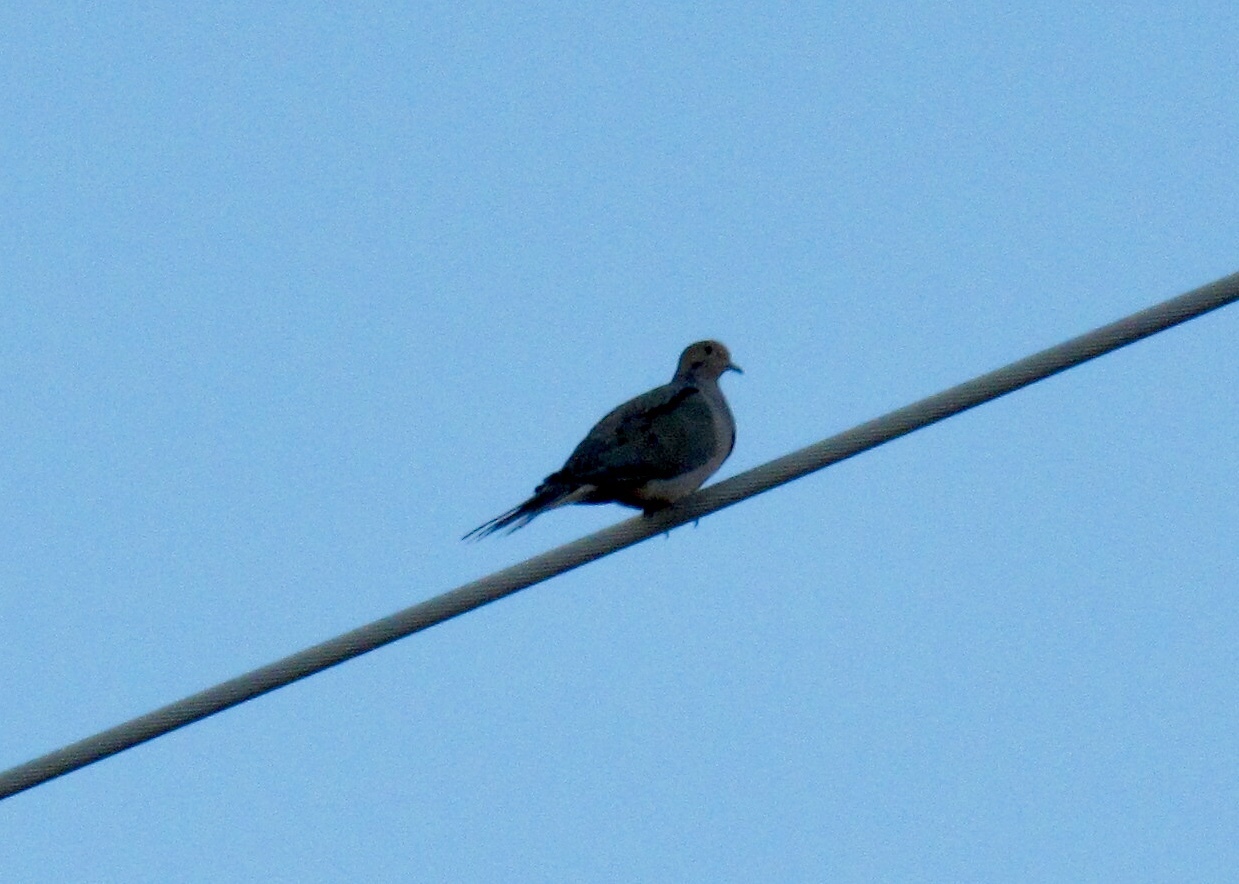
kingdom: Animalia
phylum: Chordata
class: Aves
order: Columbiformes
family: Columbidae
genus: Zenaida
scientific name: Zenaida macroura
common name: Mourning dove
